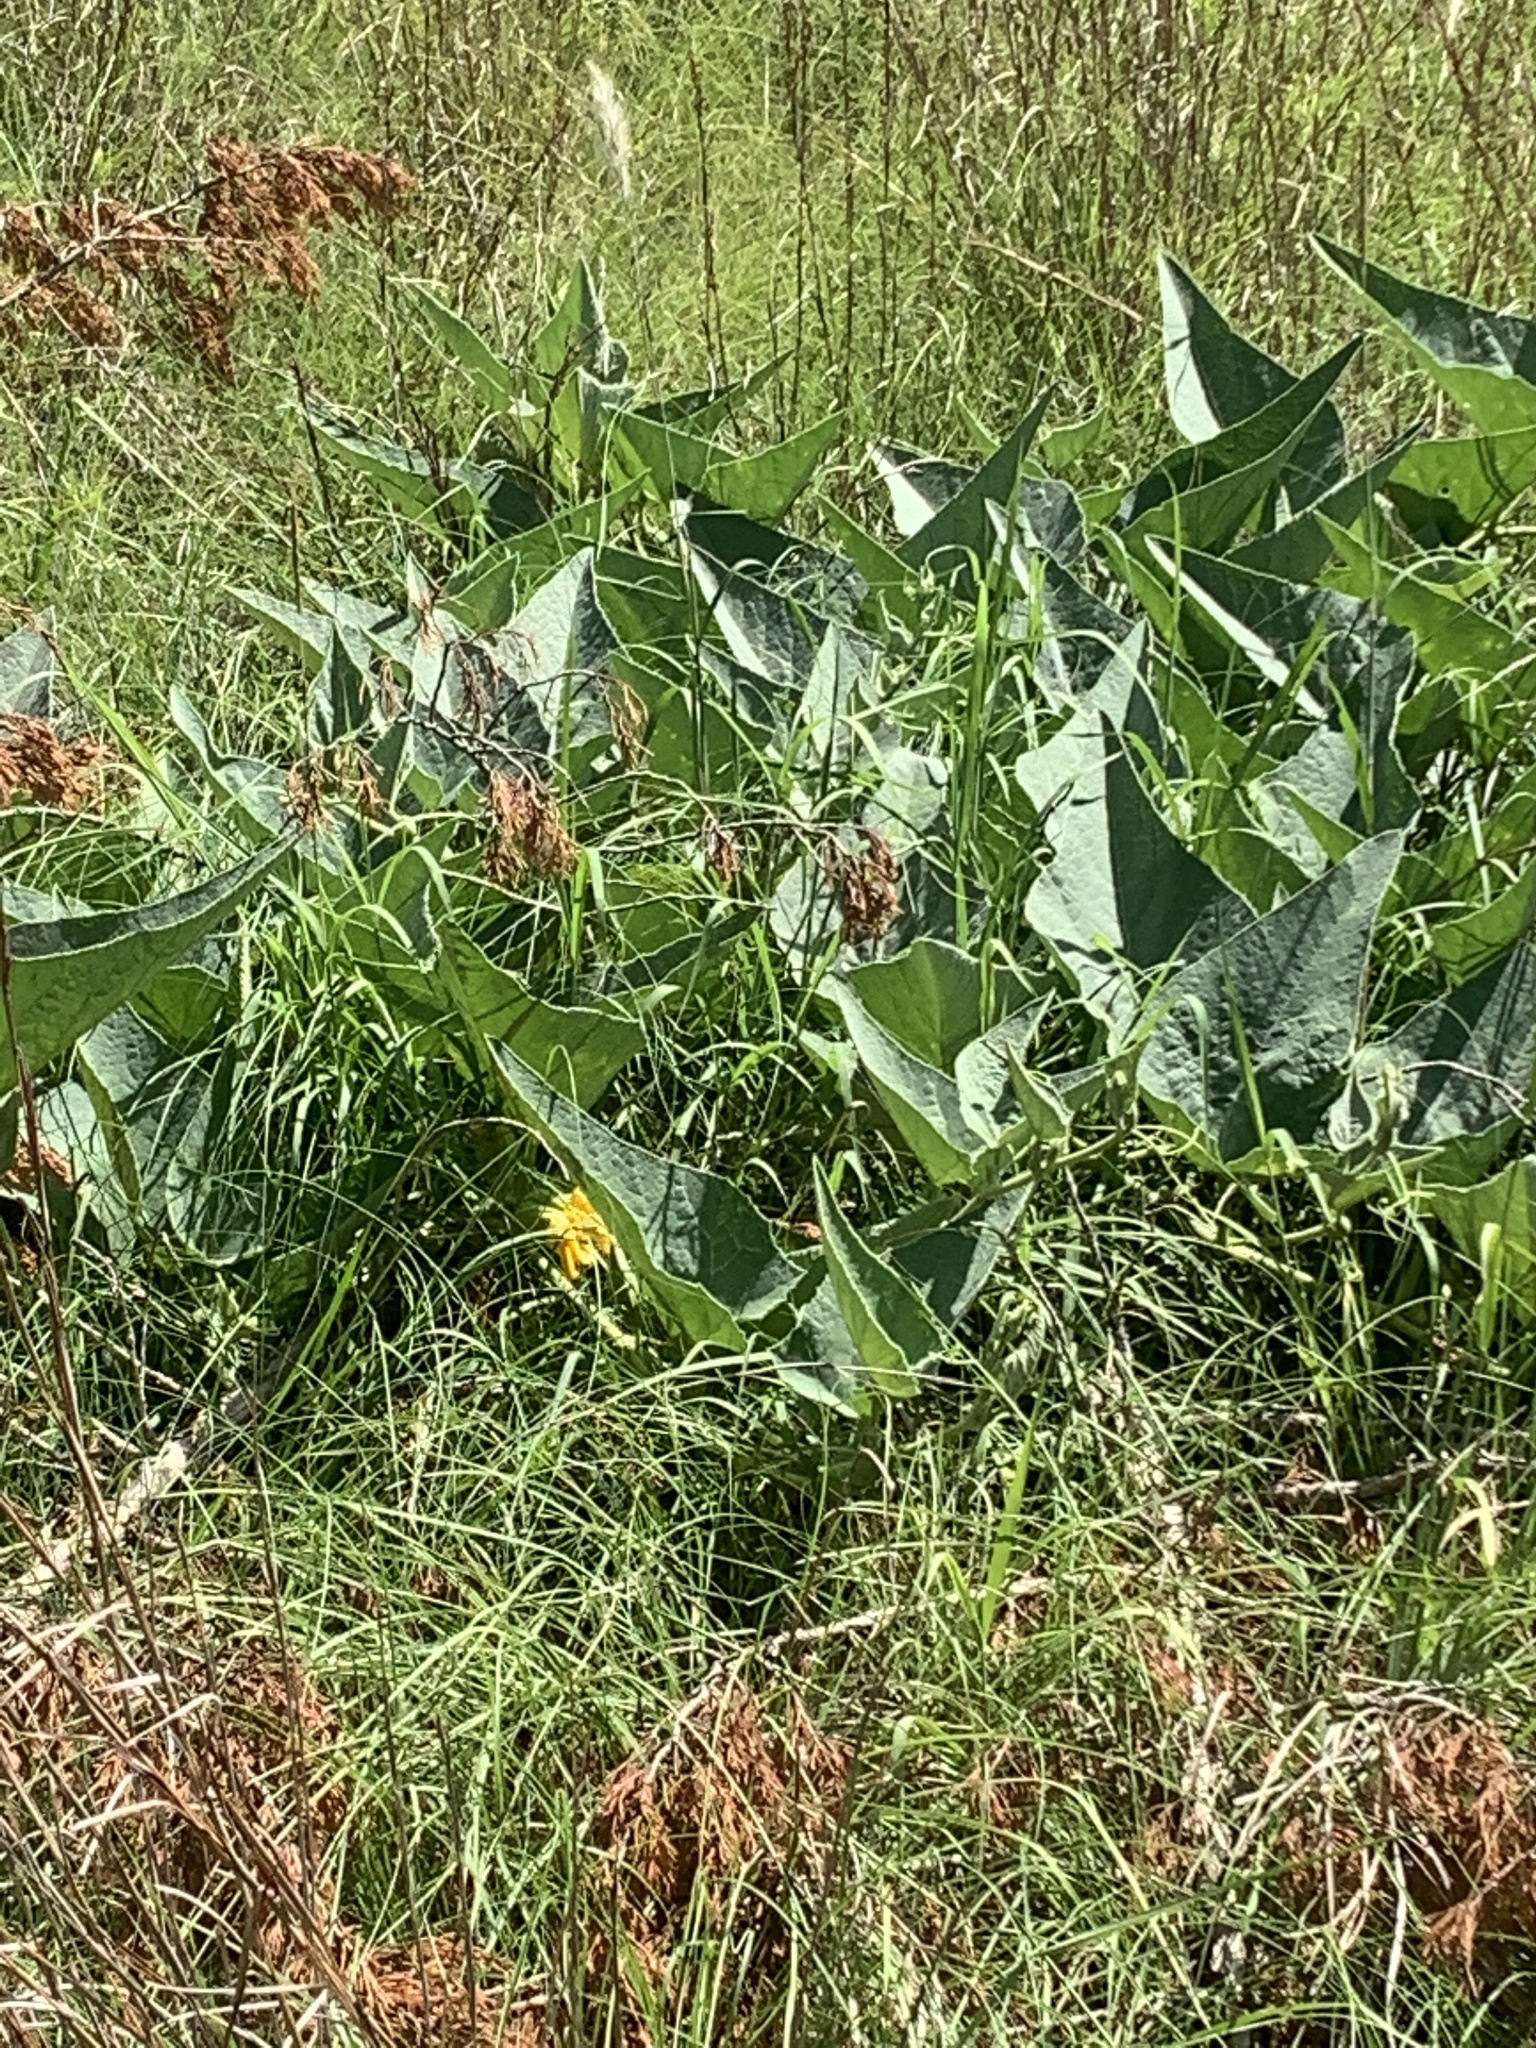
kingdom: Plantae
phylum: Tracheophyta
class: Magnoliopsida
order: Cucurbitales
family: Cucurbitaceae
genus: Cucurbita
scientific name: Cucurbita foetidissima
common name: Buffalo gourd
